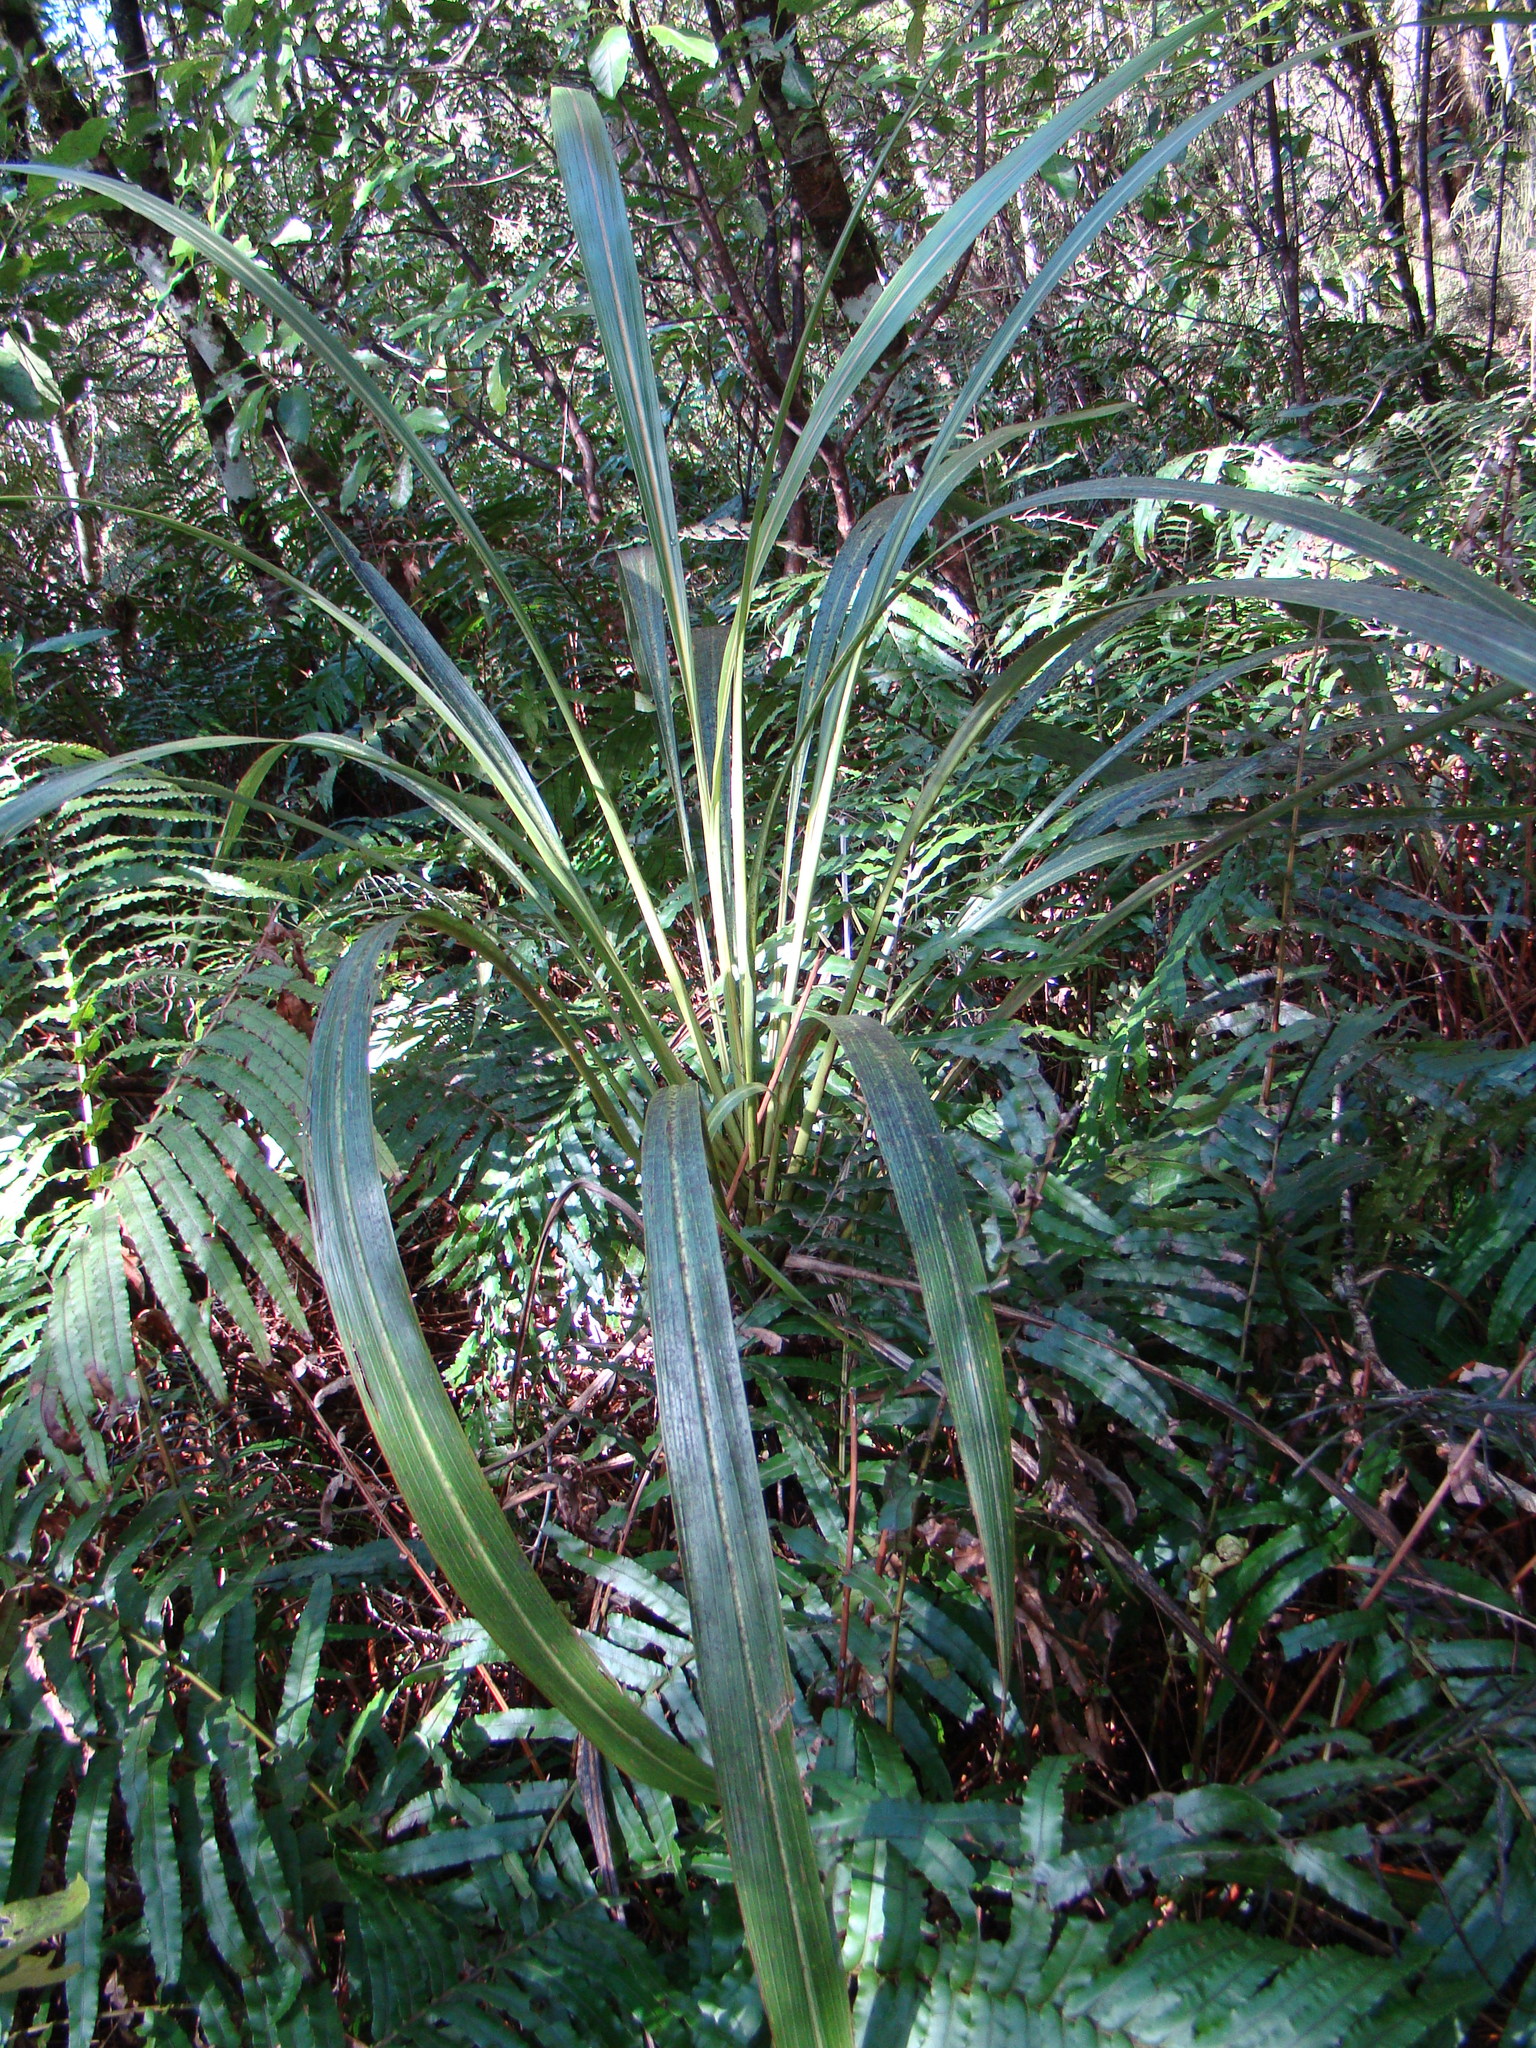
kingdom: Plantae
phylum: Tracheophyta
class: Liliopsida
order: Asparagales
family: Asparagaceae
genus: Cordyline
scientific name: Cordyline banksii
